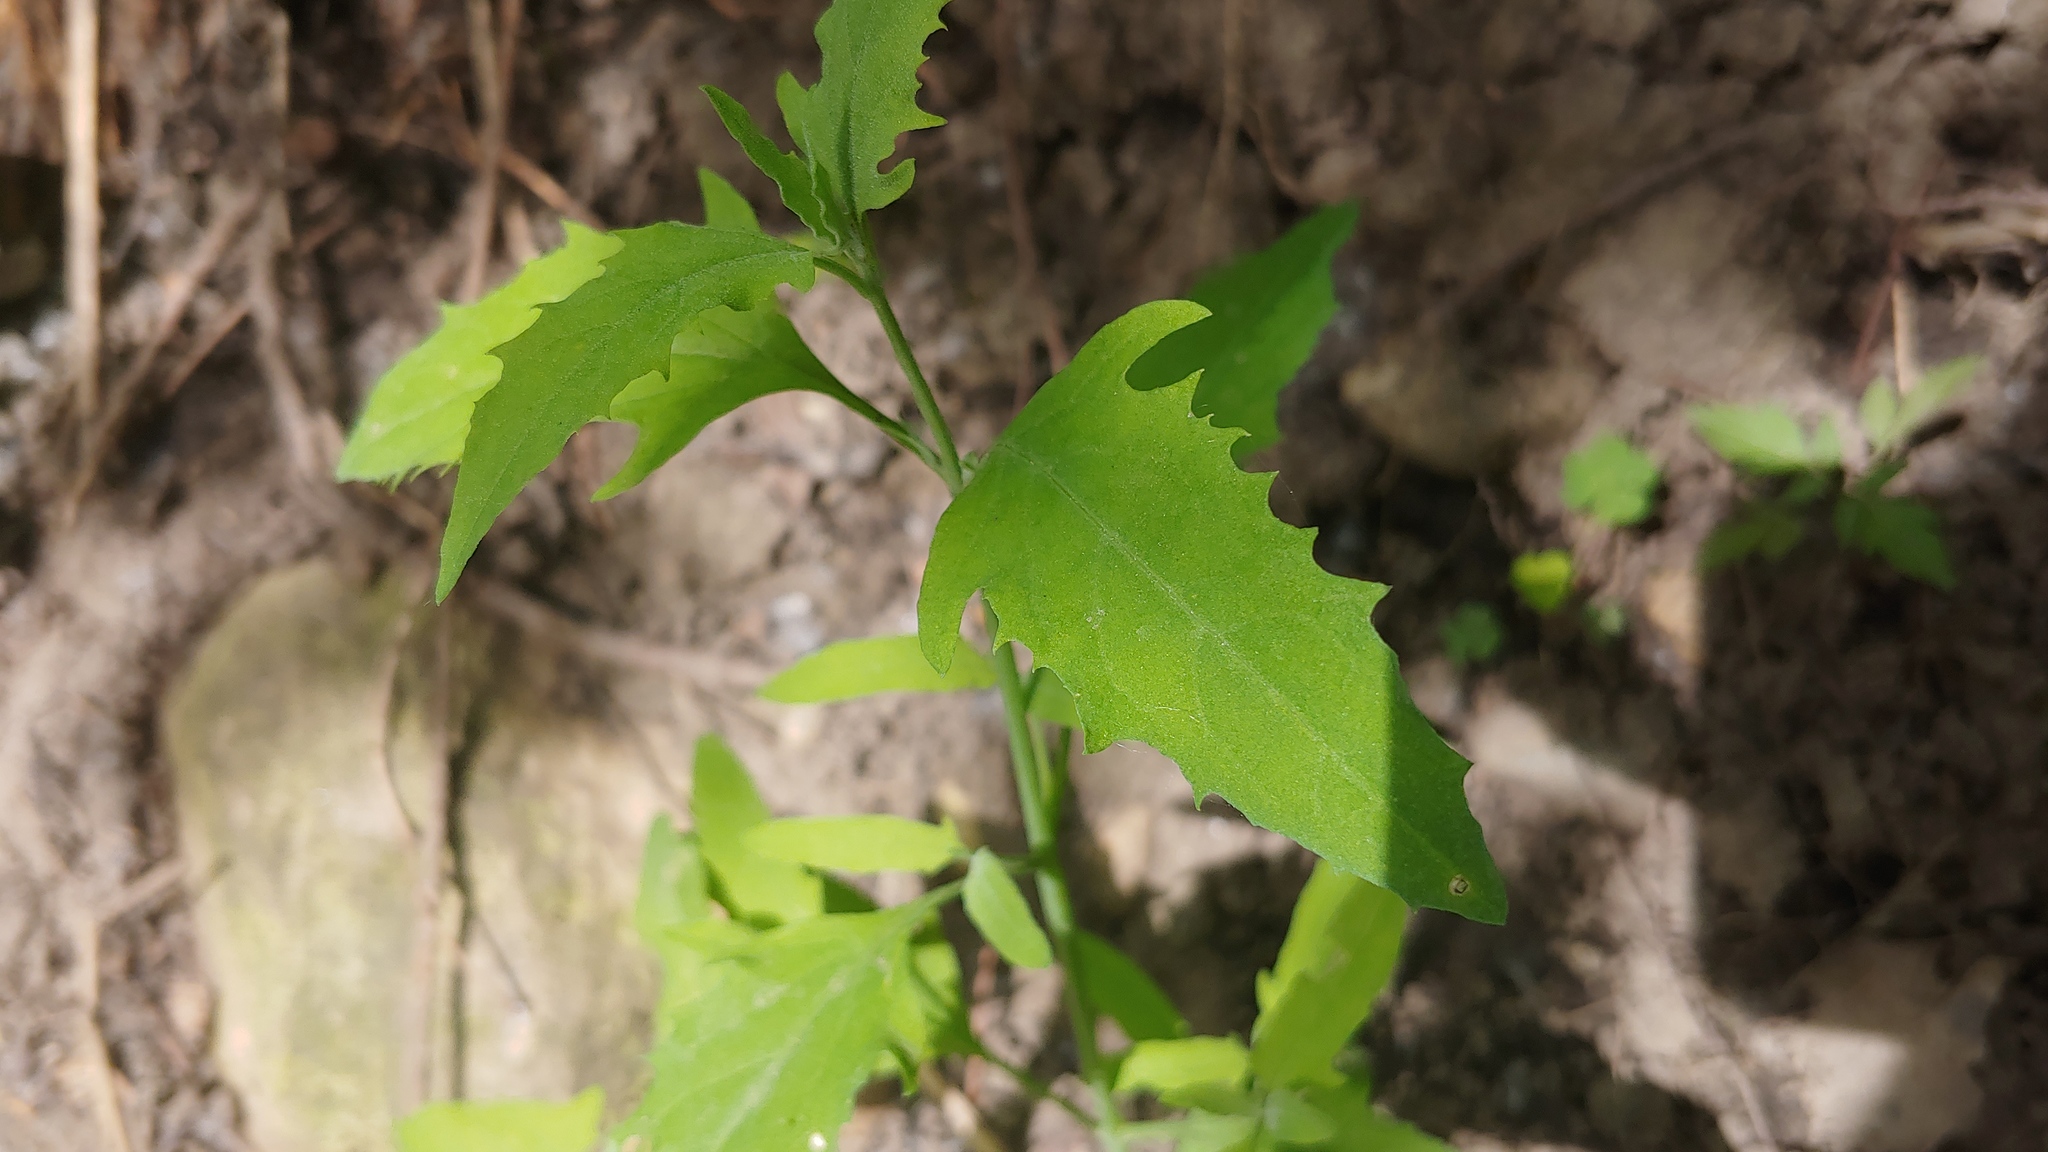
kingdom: Plantae
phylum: Tracheophyta
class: Magnoliopsida
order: Caryophyllales
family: Amaranthaceae
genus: Atriplex
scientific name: Atriplex patula
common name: Common orache
